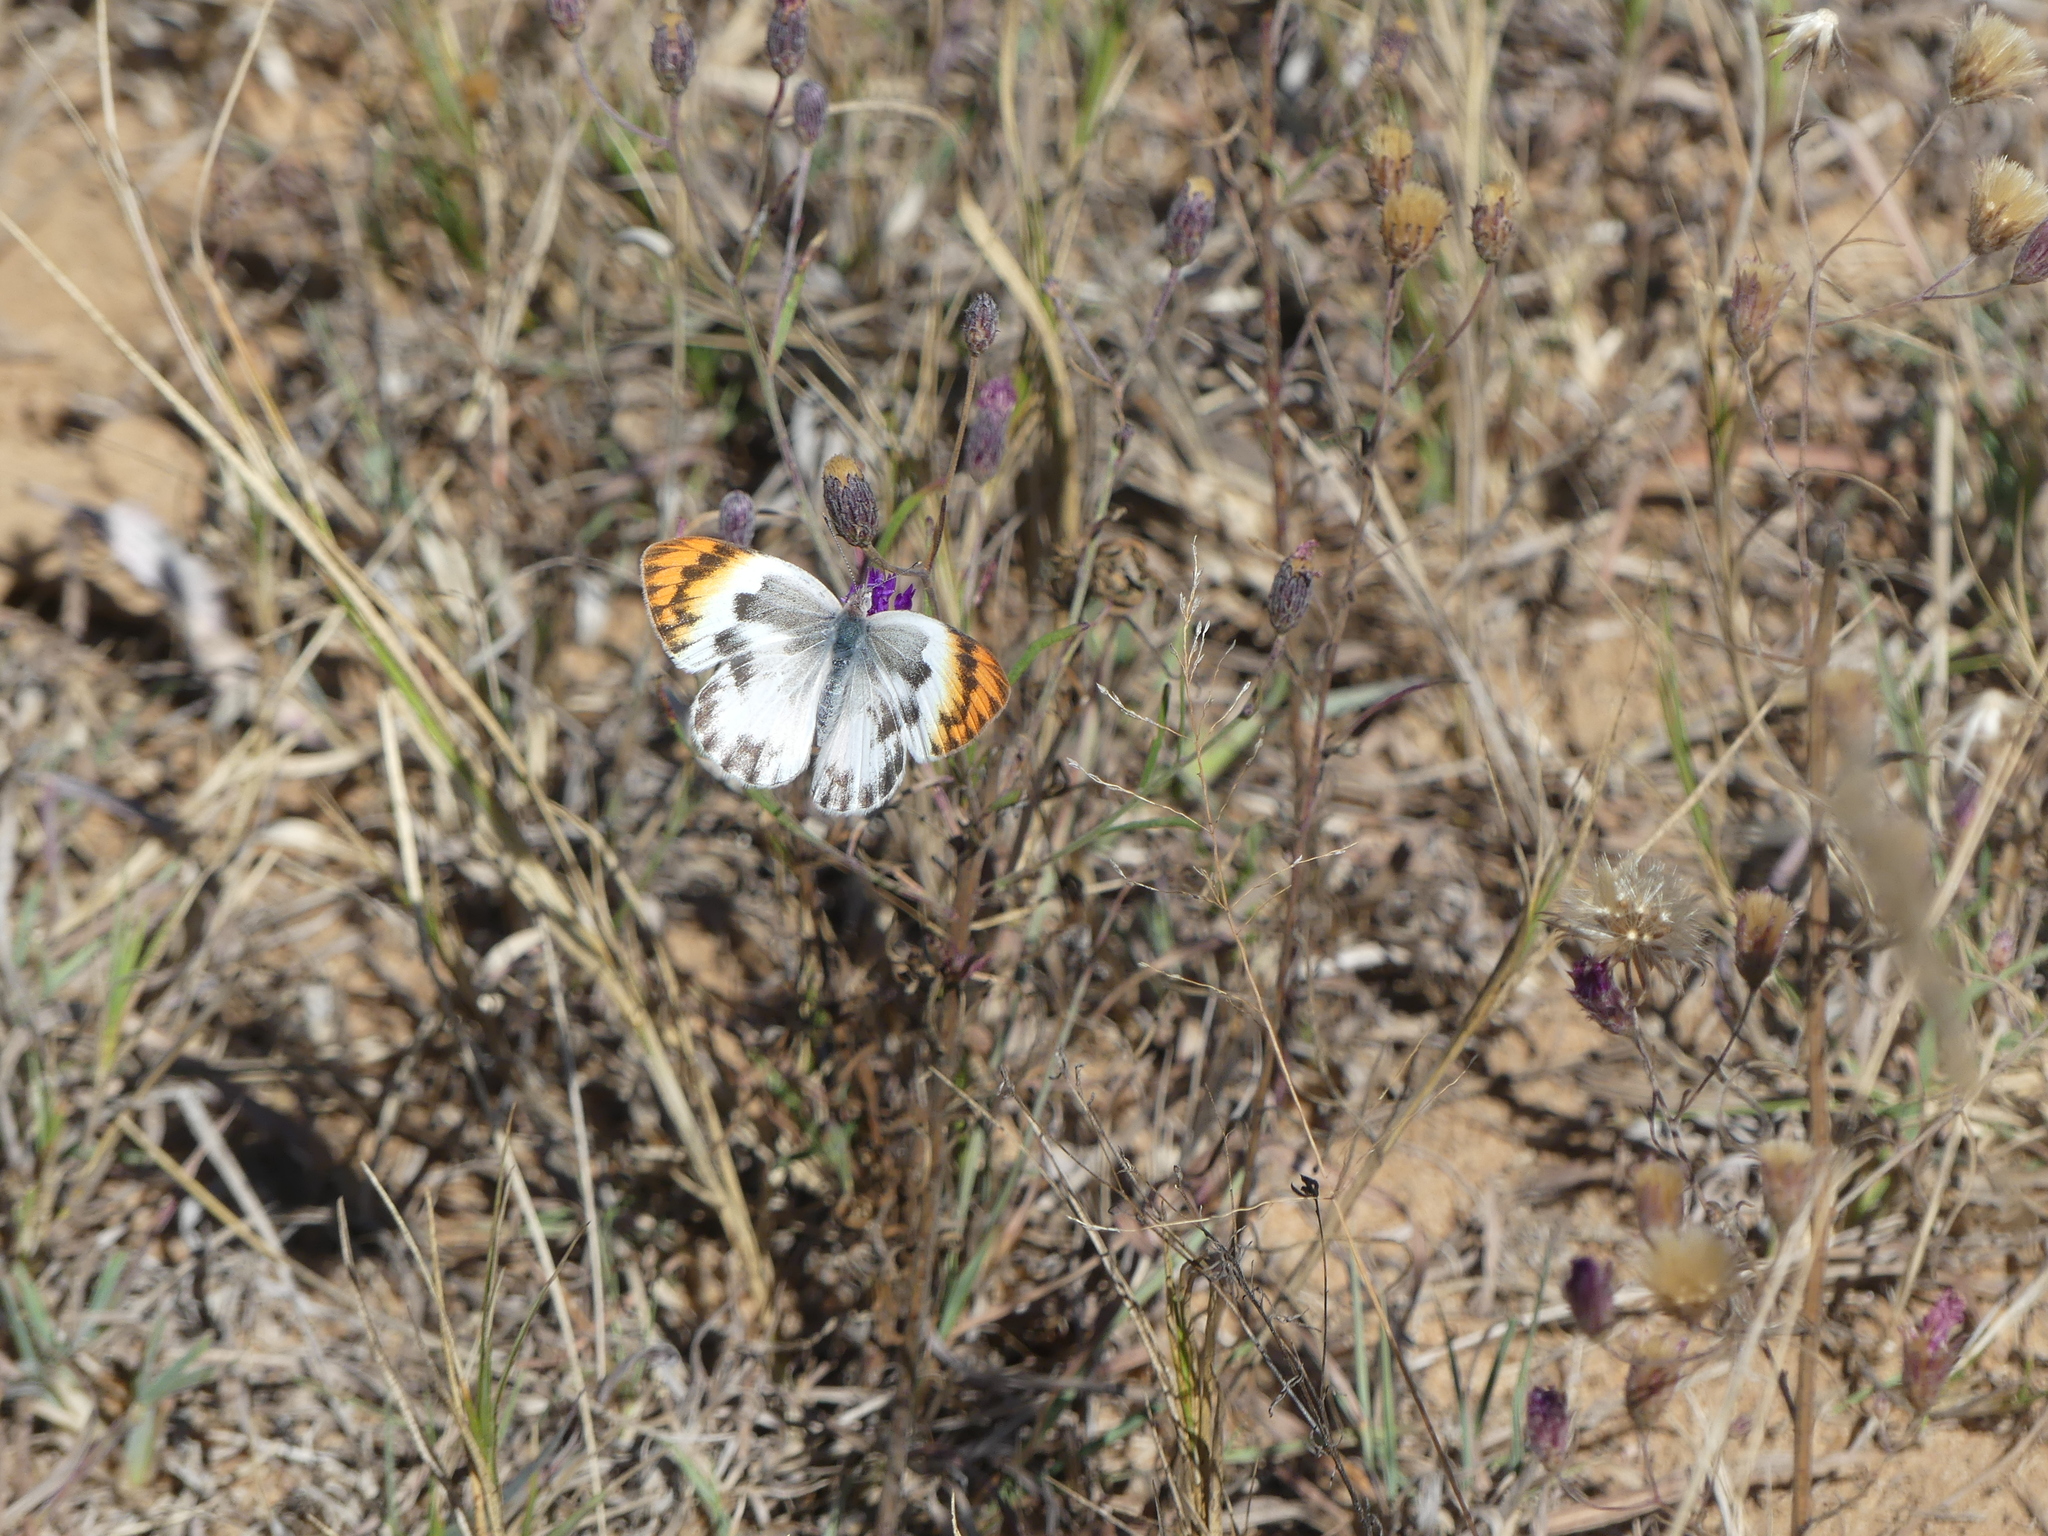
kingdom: Animalia
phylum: Arthropoda
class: Insecta
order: Lepidoptera
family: Pieridae
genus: Colotis
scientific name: Colotis evenina
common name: Common orange tip
